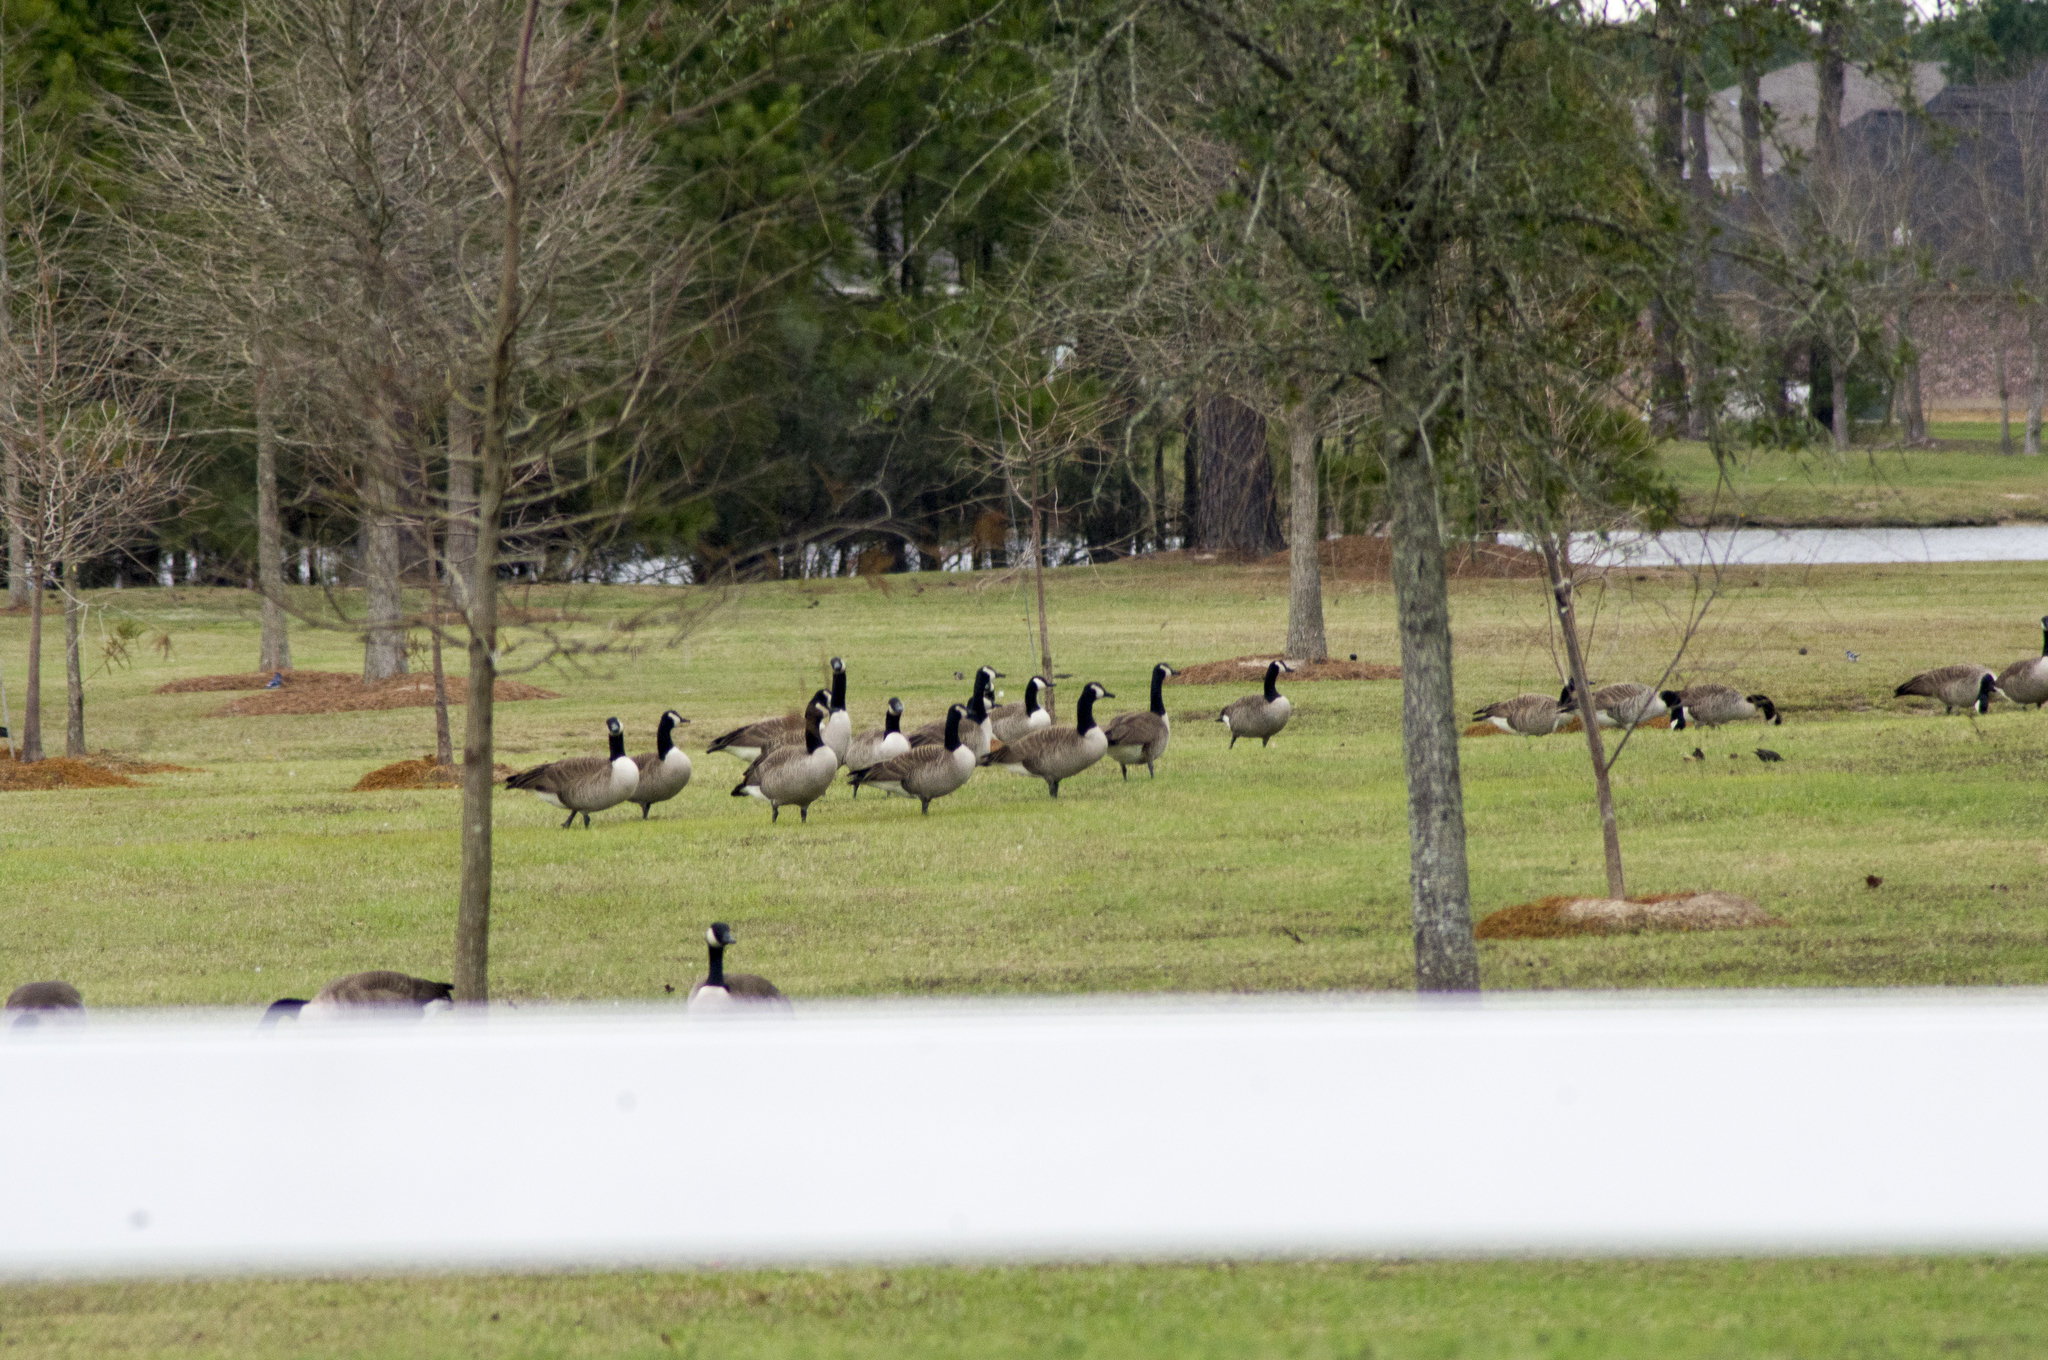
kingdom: Animalia
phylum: Chordata
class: Aves
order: Anseriformes
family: Anatidae
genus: Branta
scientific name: Branta canadensis
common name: Canada goose
